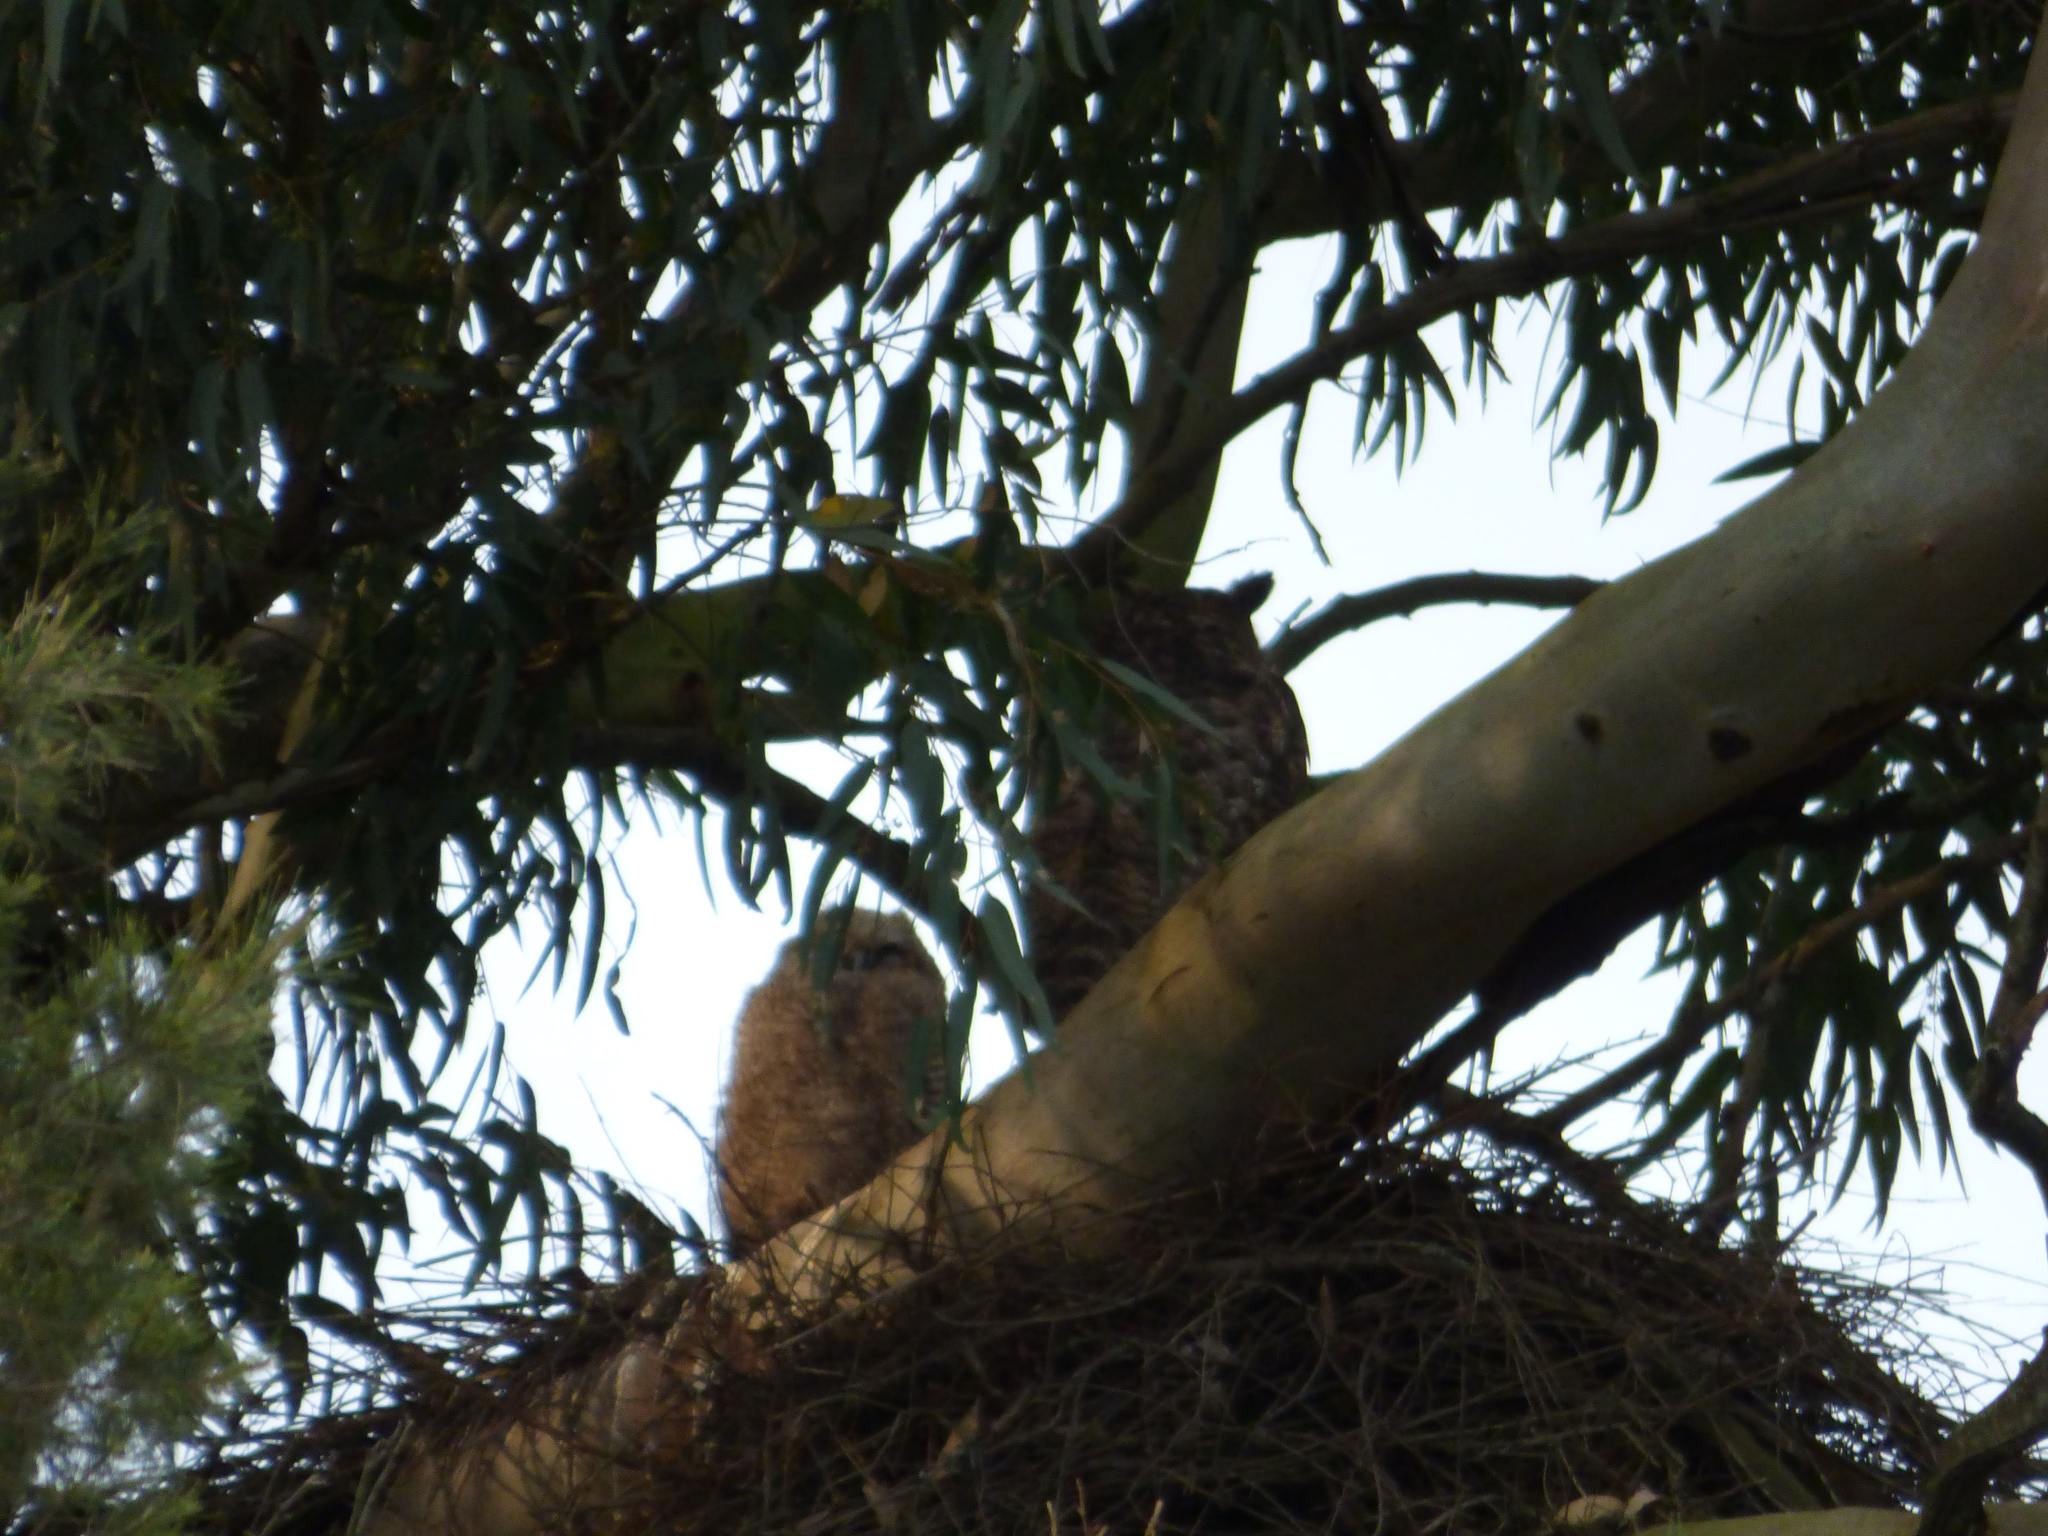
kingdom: Animalia
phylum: Chordata
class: Aves
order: Strigiformes
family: Strigidae
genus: Bubo
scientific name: Bubo virginianus
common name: Great horned owl
